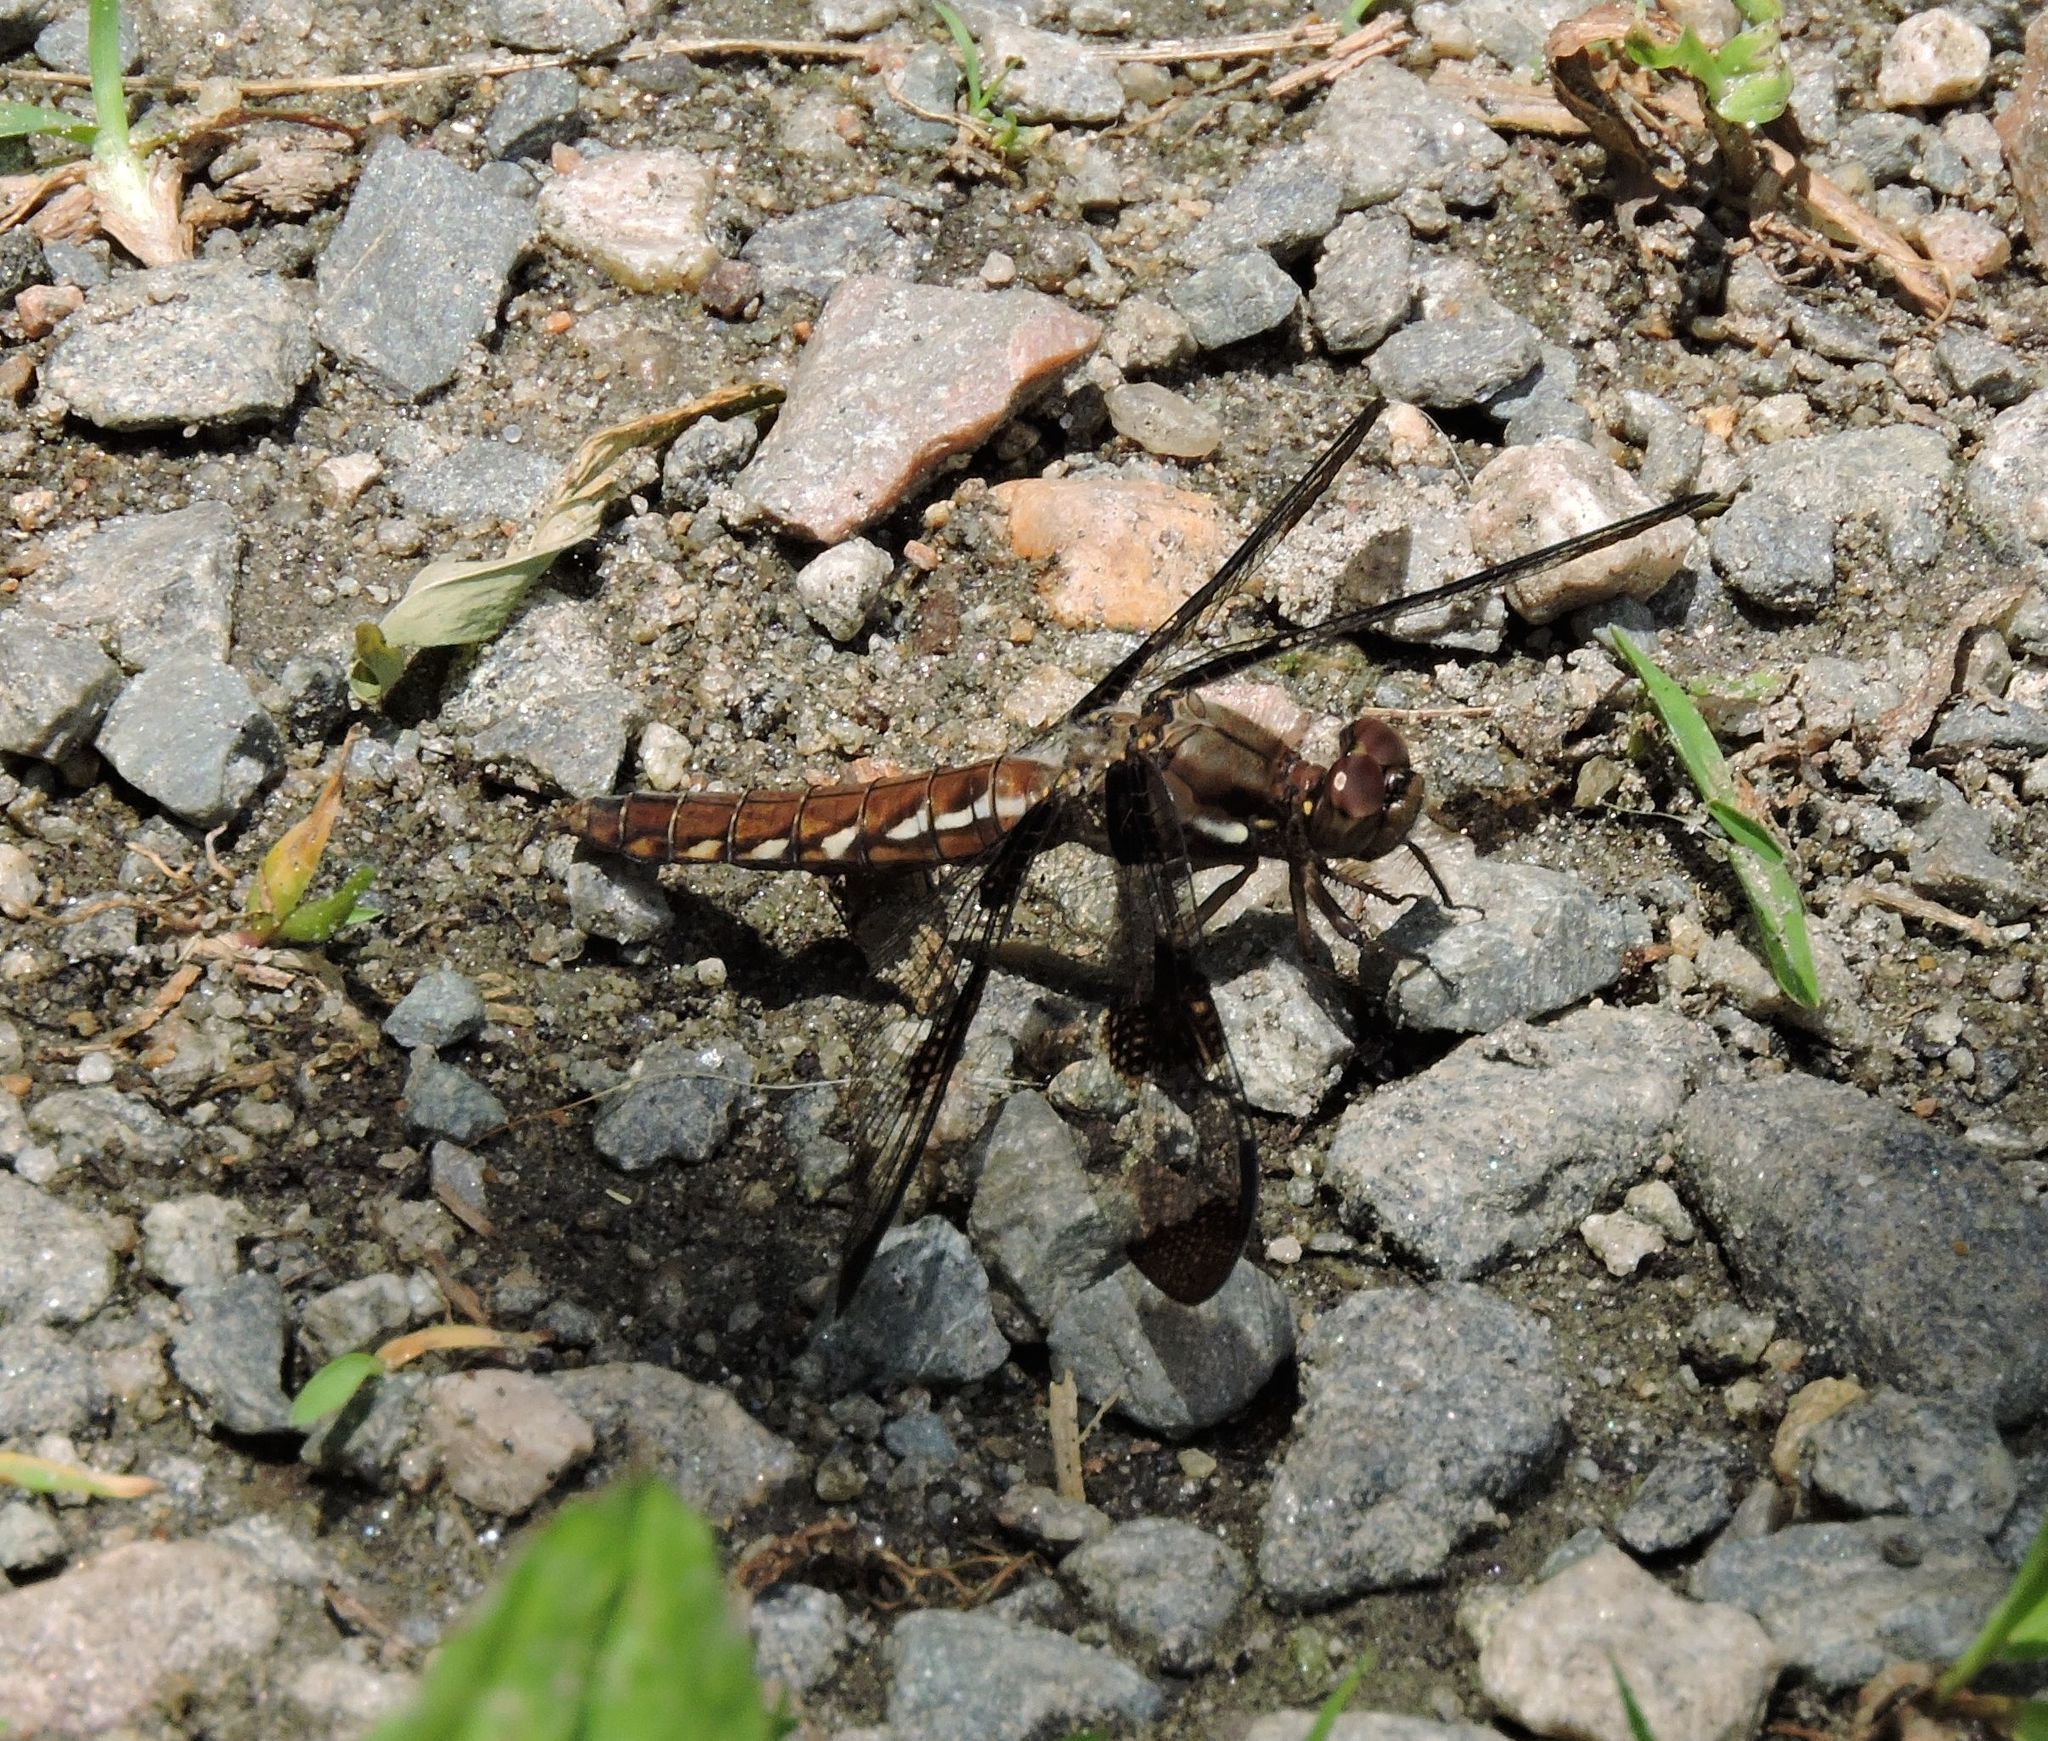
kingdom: Animalia
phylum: Arthropoda
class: Insecta
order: Odonata
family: Libellulidae
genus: Plathemis
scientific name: Plathemis lydia
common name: Common whitetail
